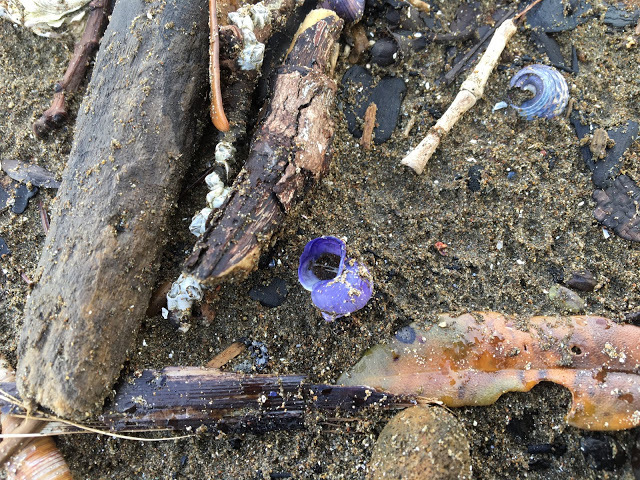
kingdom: Animalia
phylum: Mollusca
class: Gastropoda
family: Epitoniidae
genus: Janthina
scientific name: Janthina exigua
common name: Dwarf janthina
